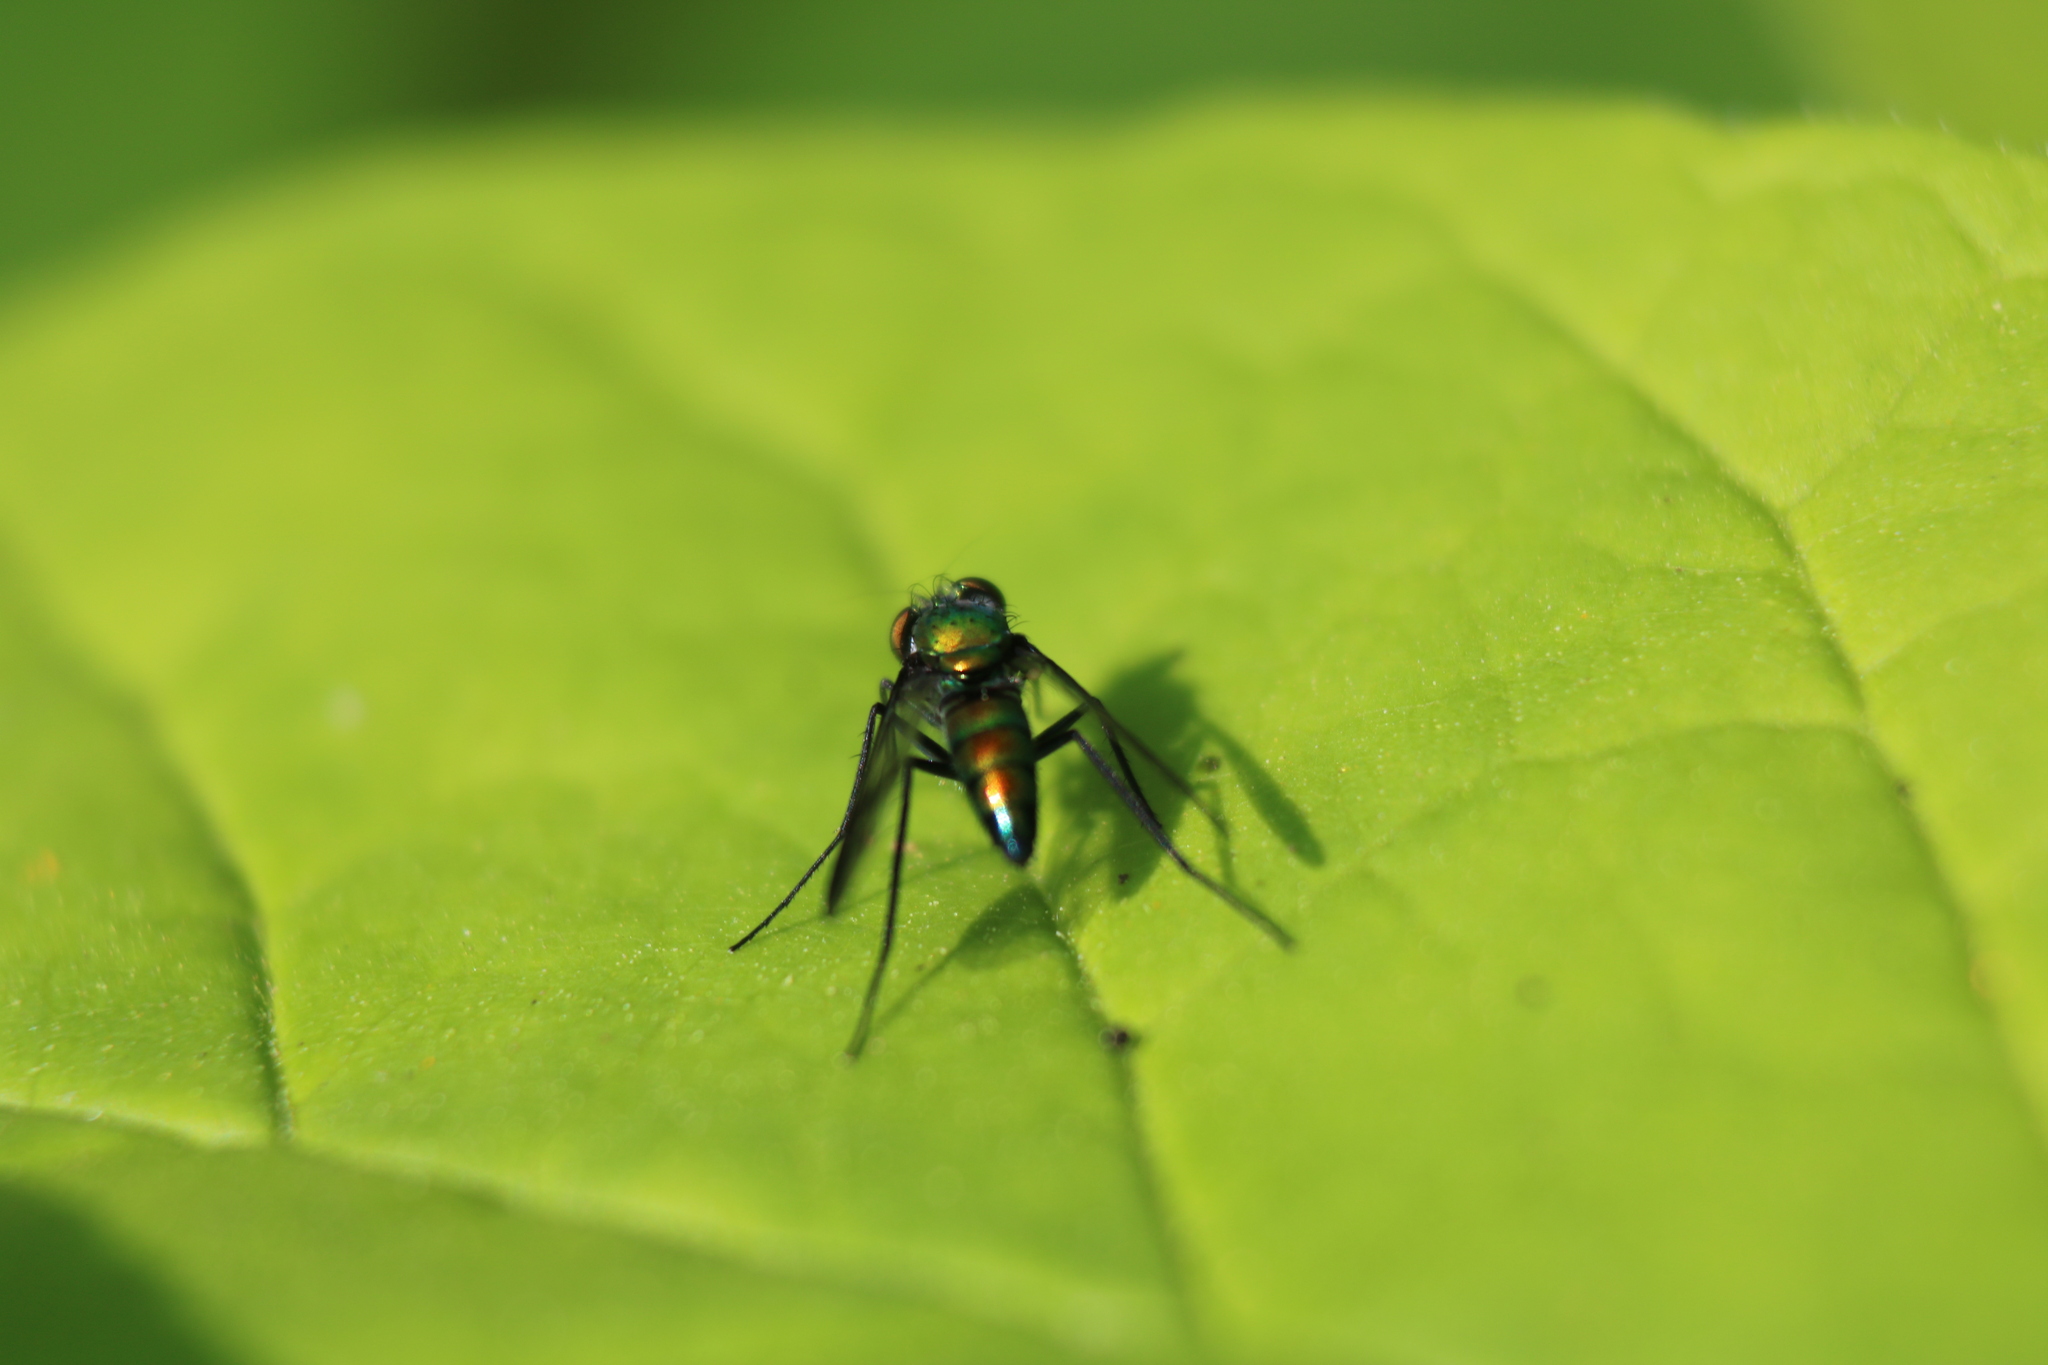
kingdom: Animalia
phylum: Arthropoda
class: Insecta
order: Diptera
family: Dolichopodidae
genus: Condylostylus
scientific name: Condylostylus patibulatus
